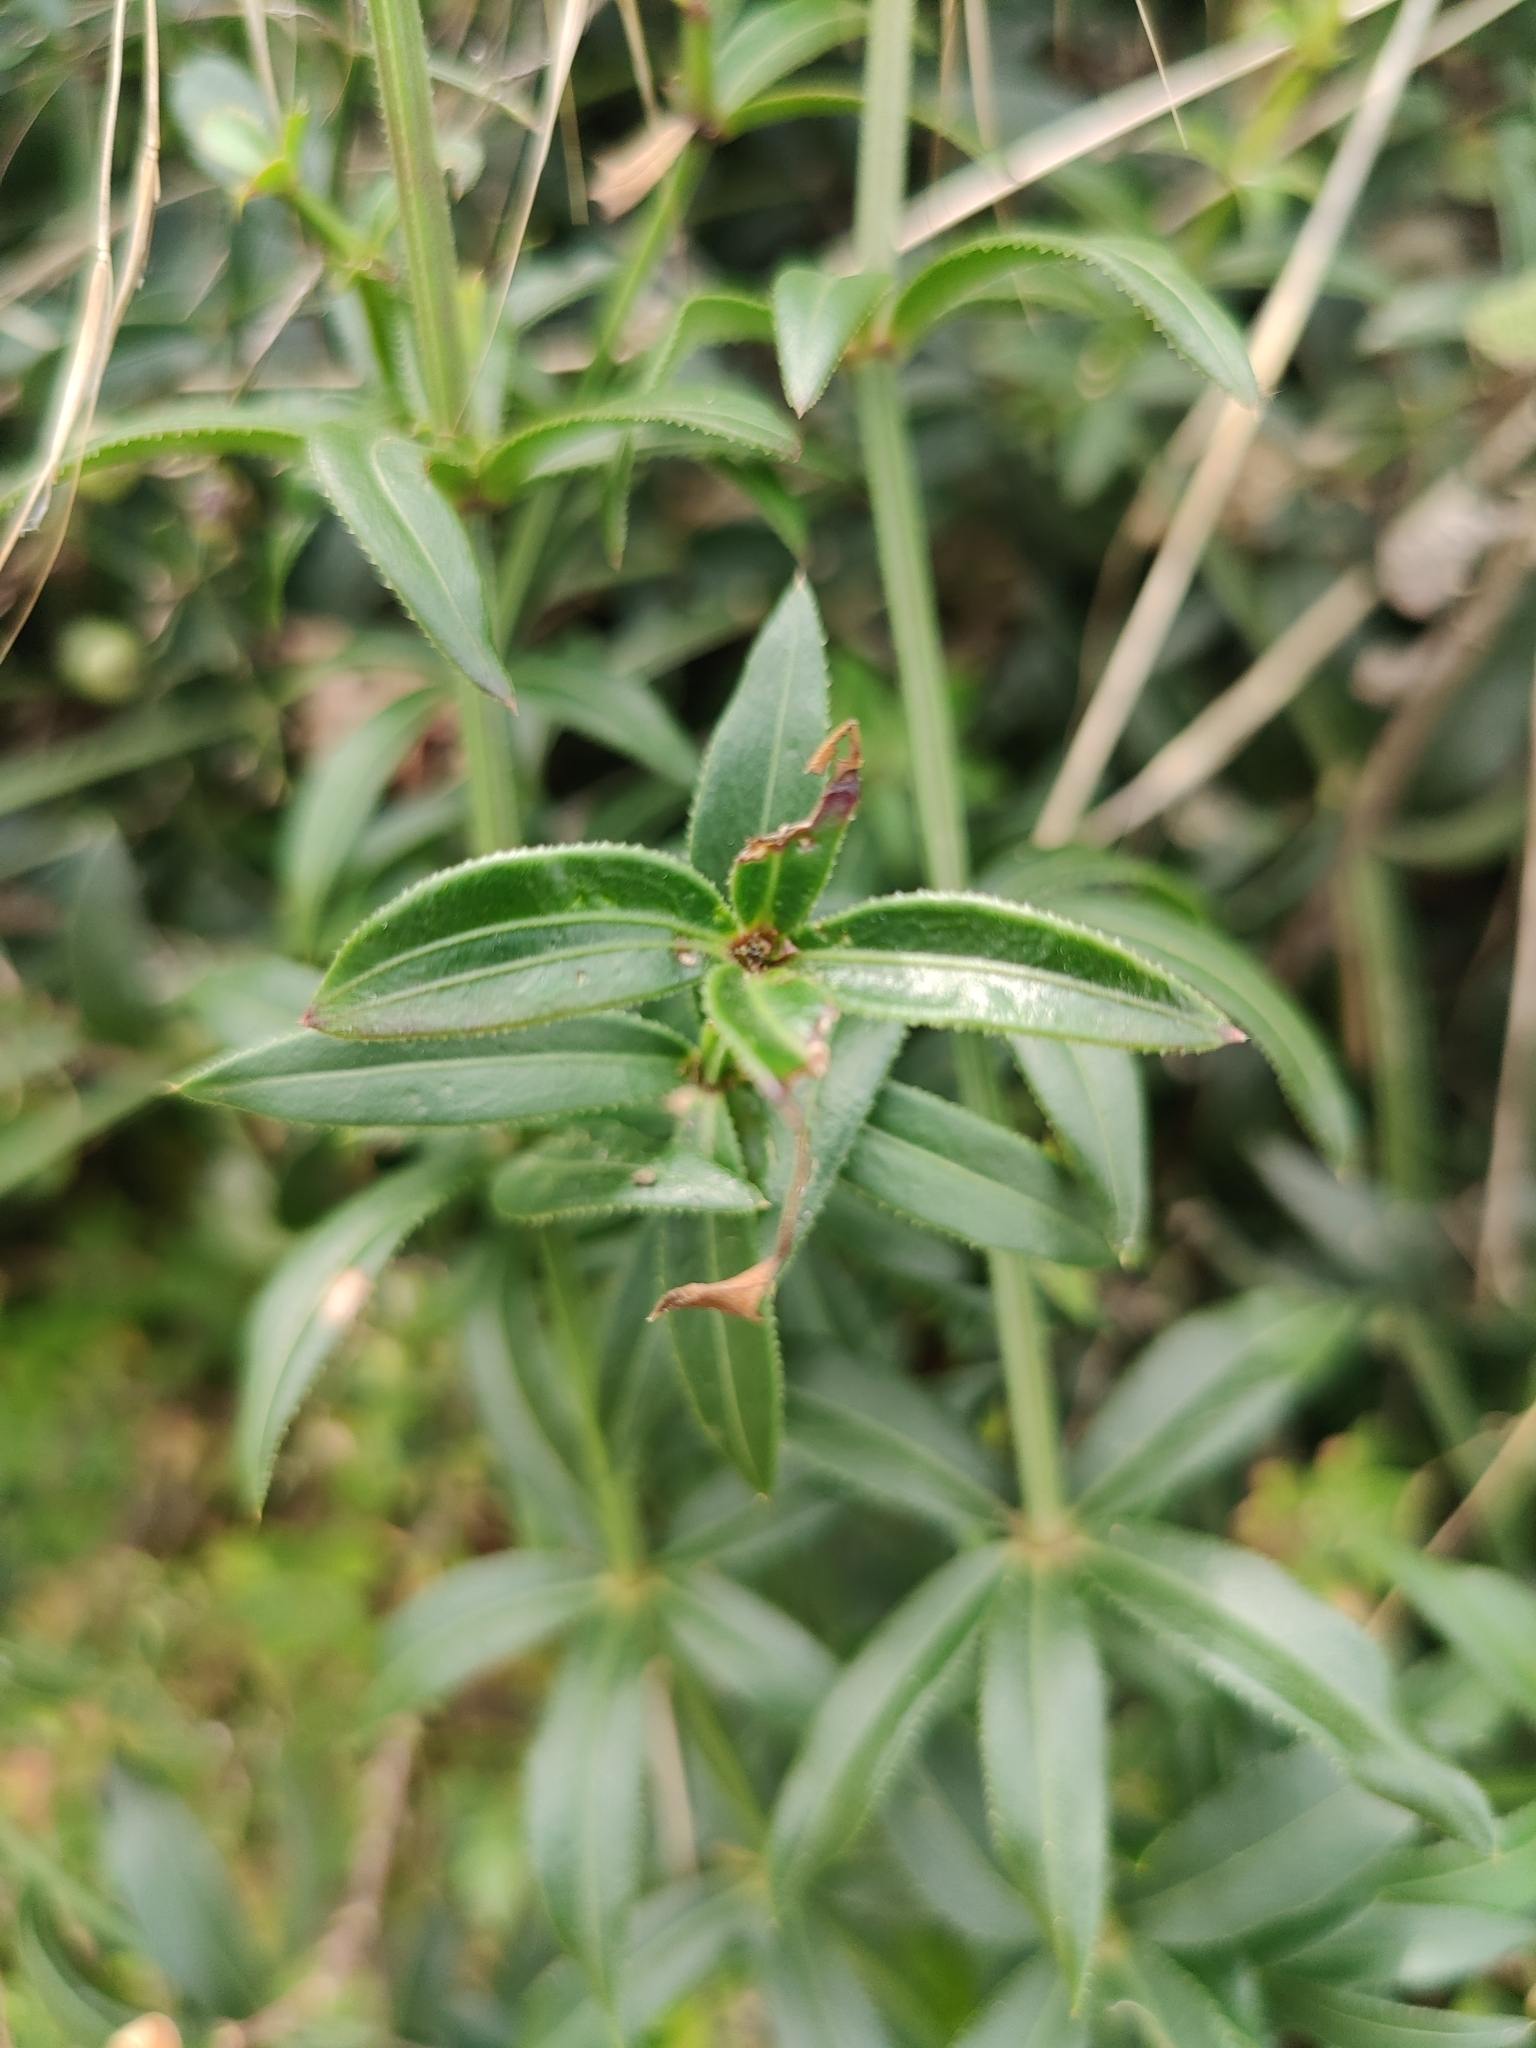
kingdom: Plantae
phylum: Tracheophyta
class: Magnoliopsida
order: Gentianales
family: Rubiaceae
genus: Rubia
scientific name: Rubia peregrina
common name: Wild madder
